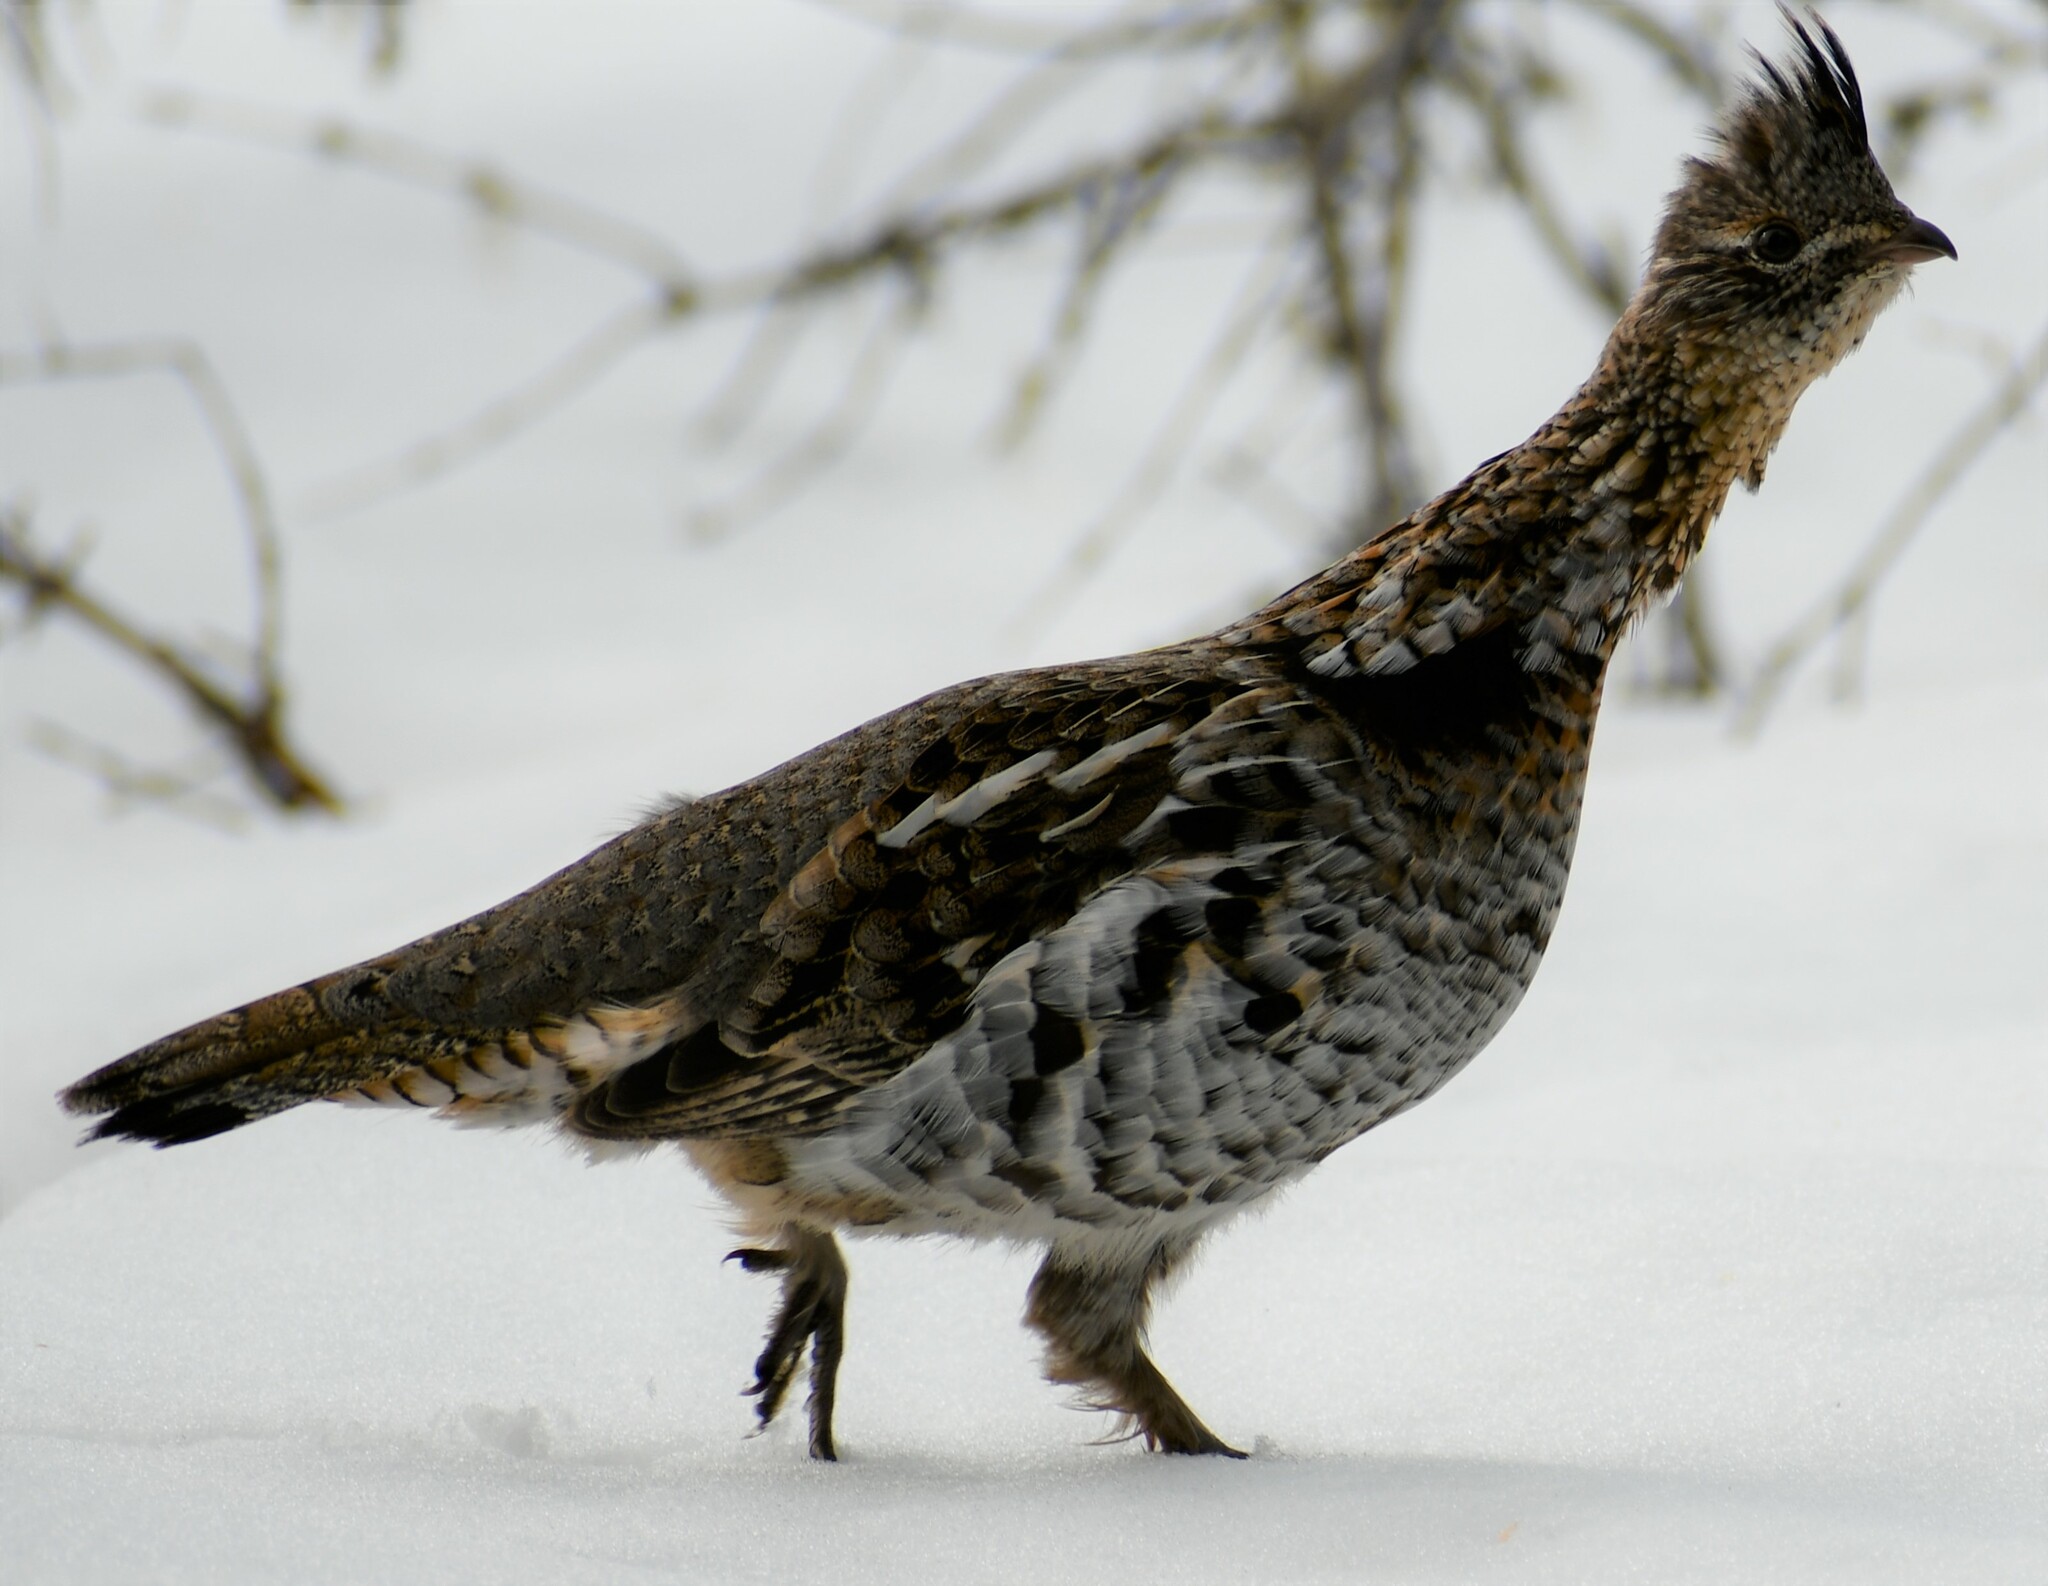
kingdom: Animalia
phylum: Chordata
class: Aves
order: Galliformes
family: Phasianidae
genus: Bonasa
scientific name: Bonasa umbellus
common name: Ruffed grouse
